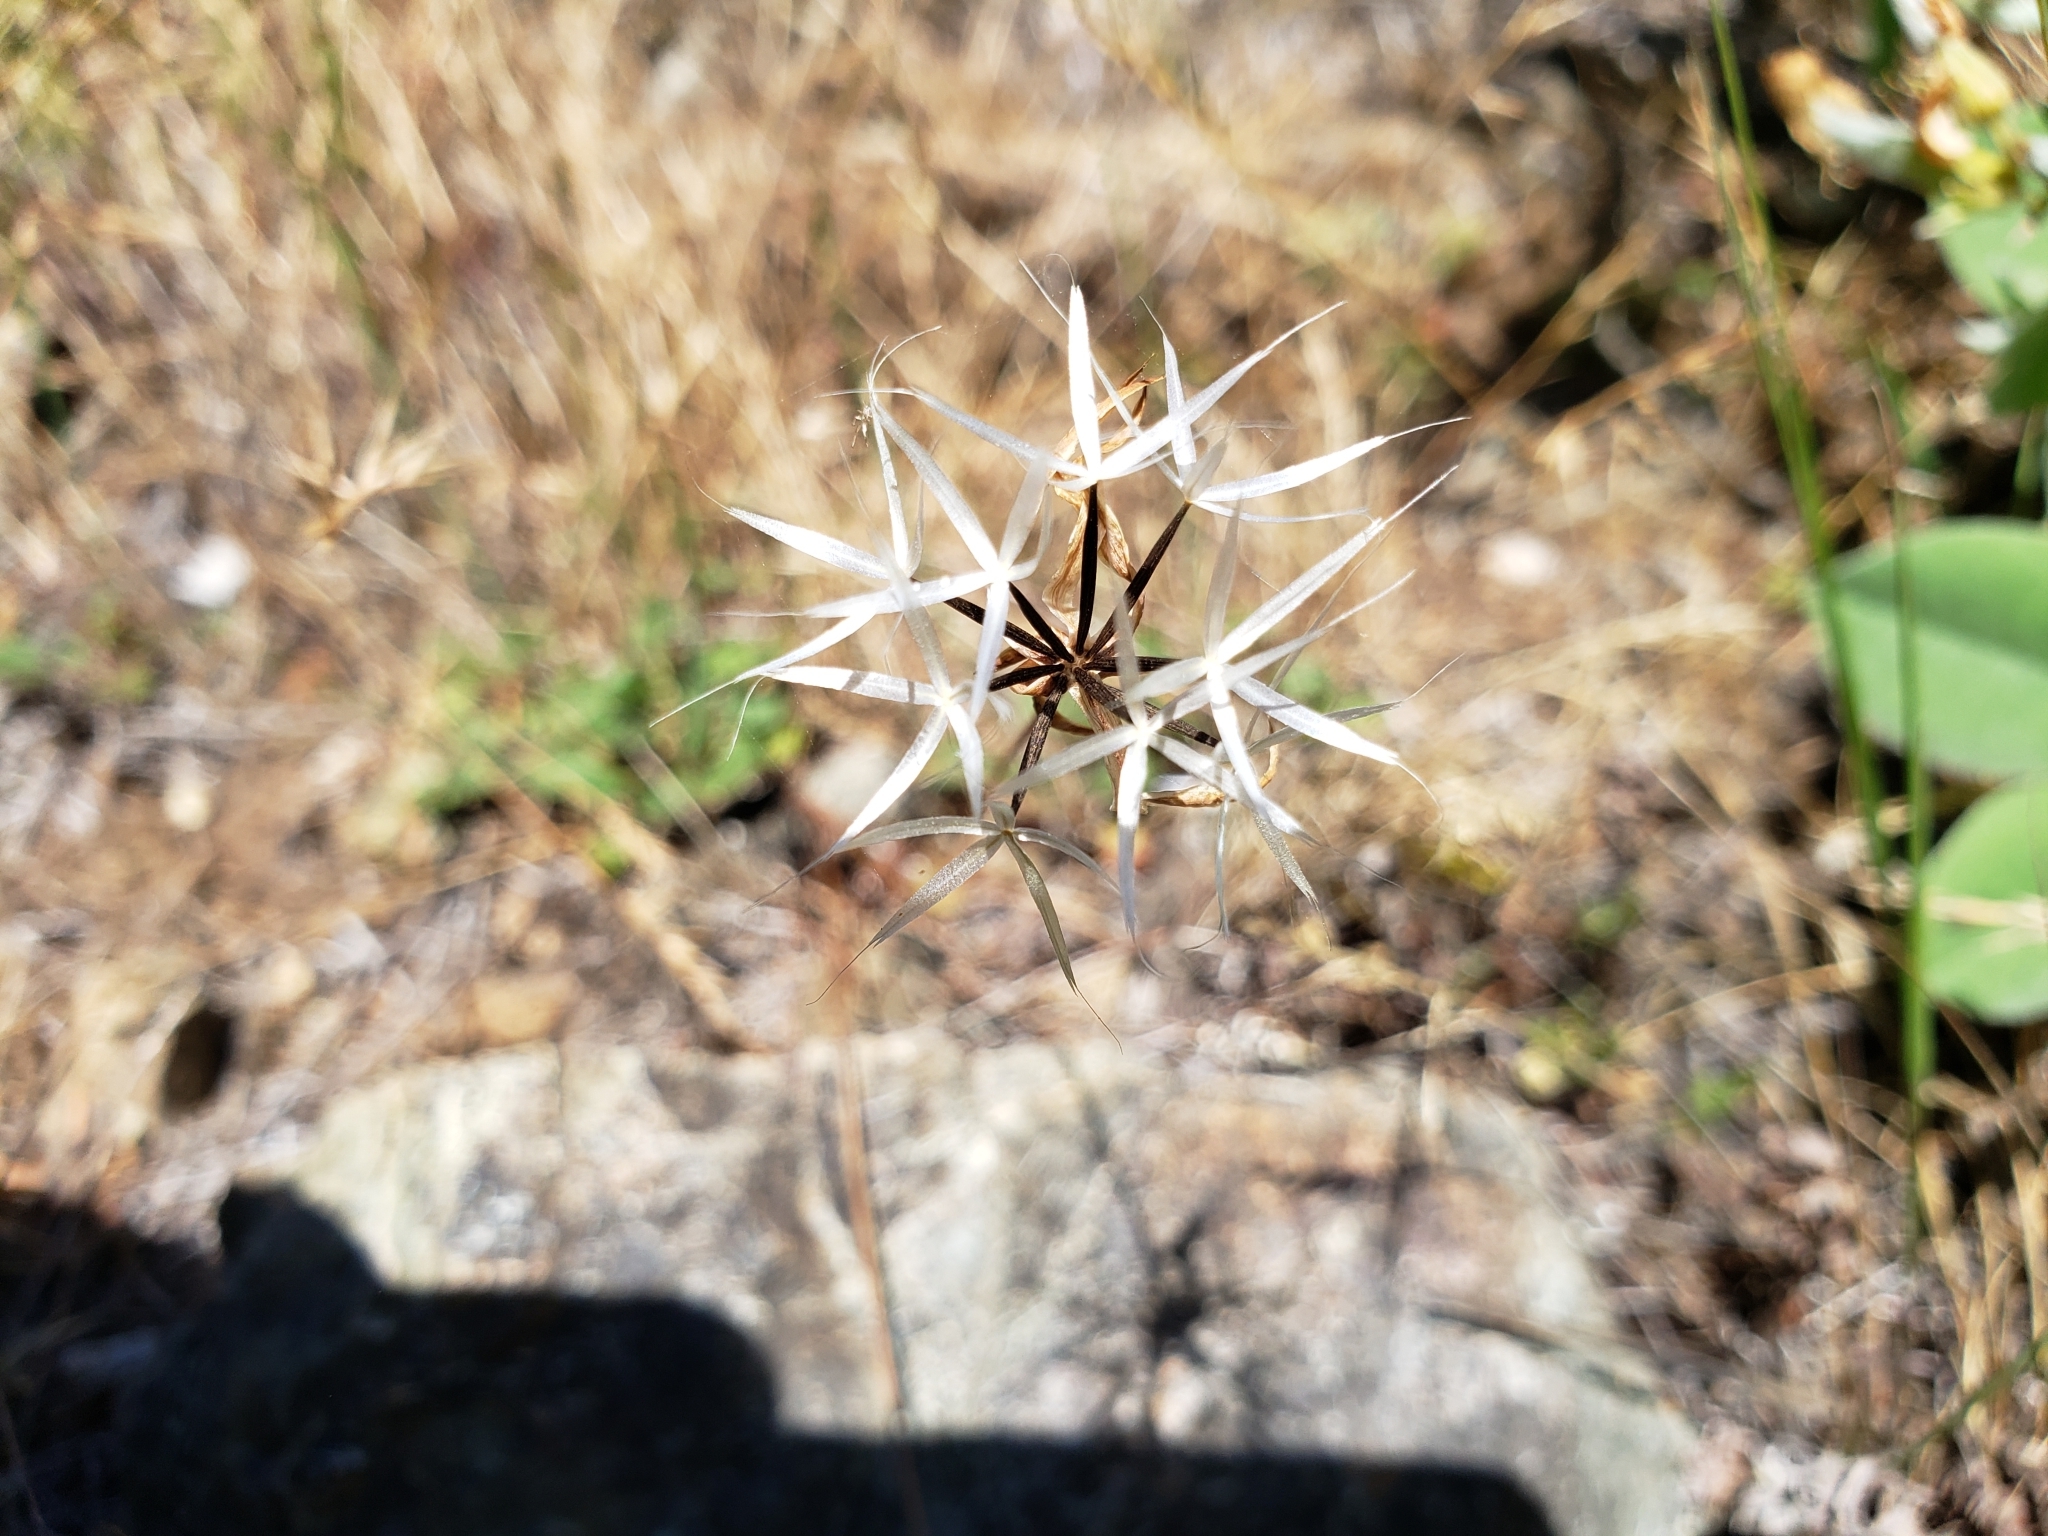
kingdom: Plantae
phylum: Tracheophyta
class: Magnoliopsida
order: Asterales
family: Asteraceae
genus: Microseris
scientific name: Microseris lindleyi
